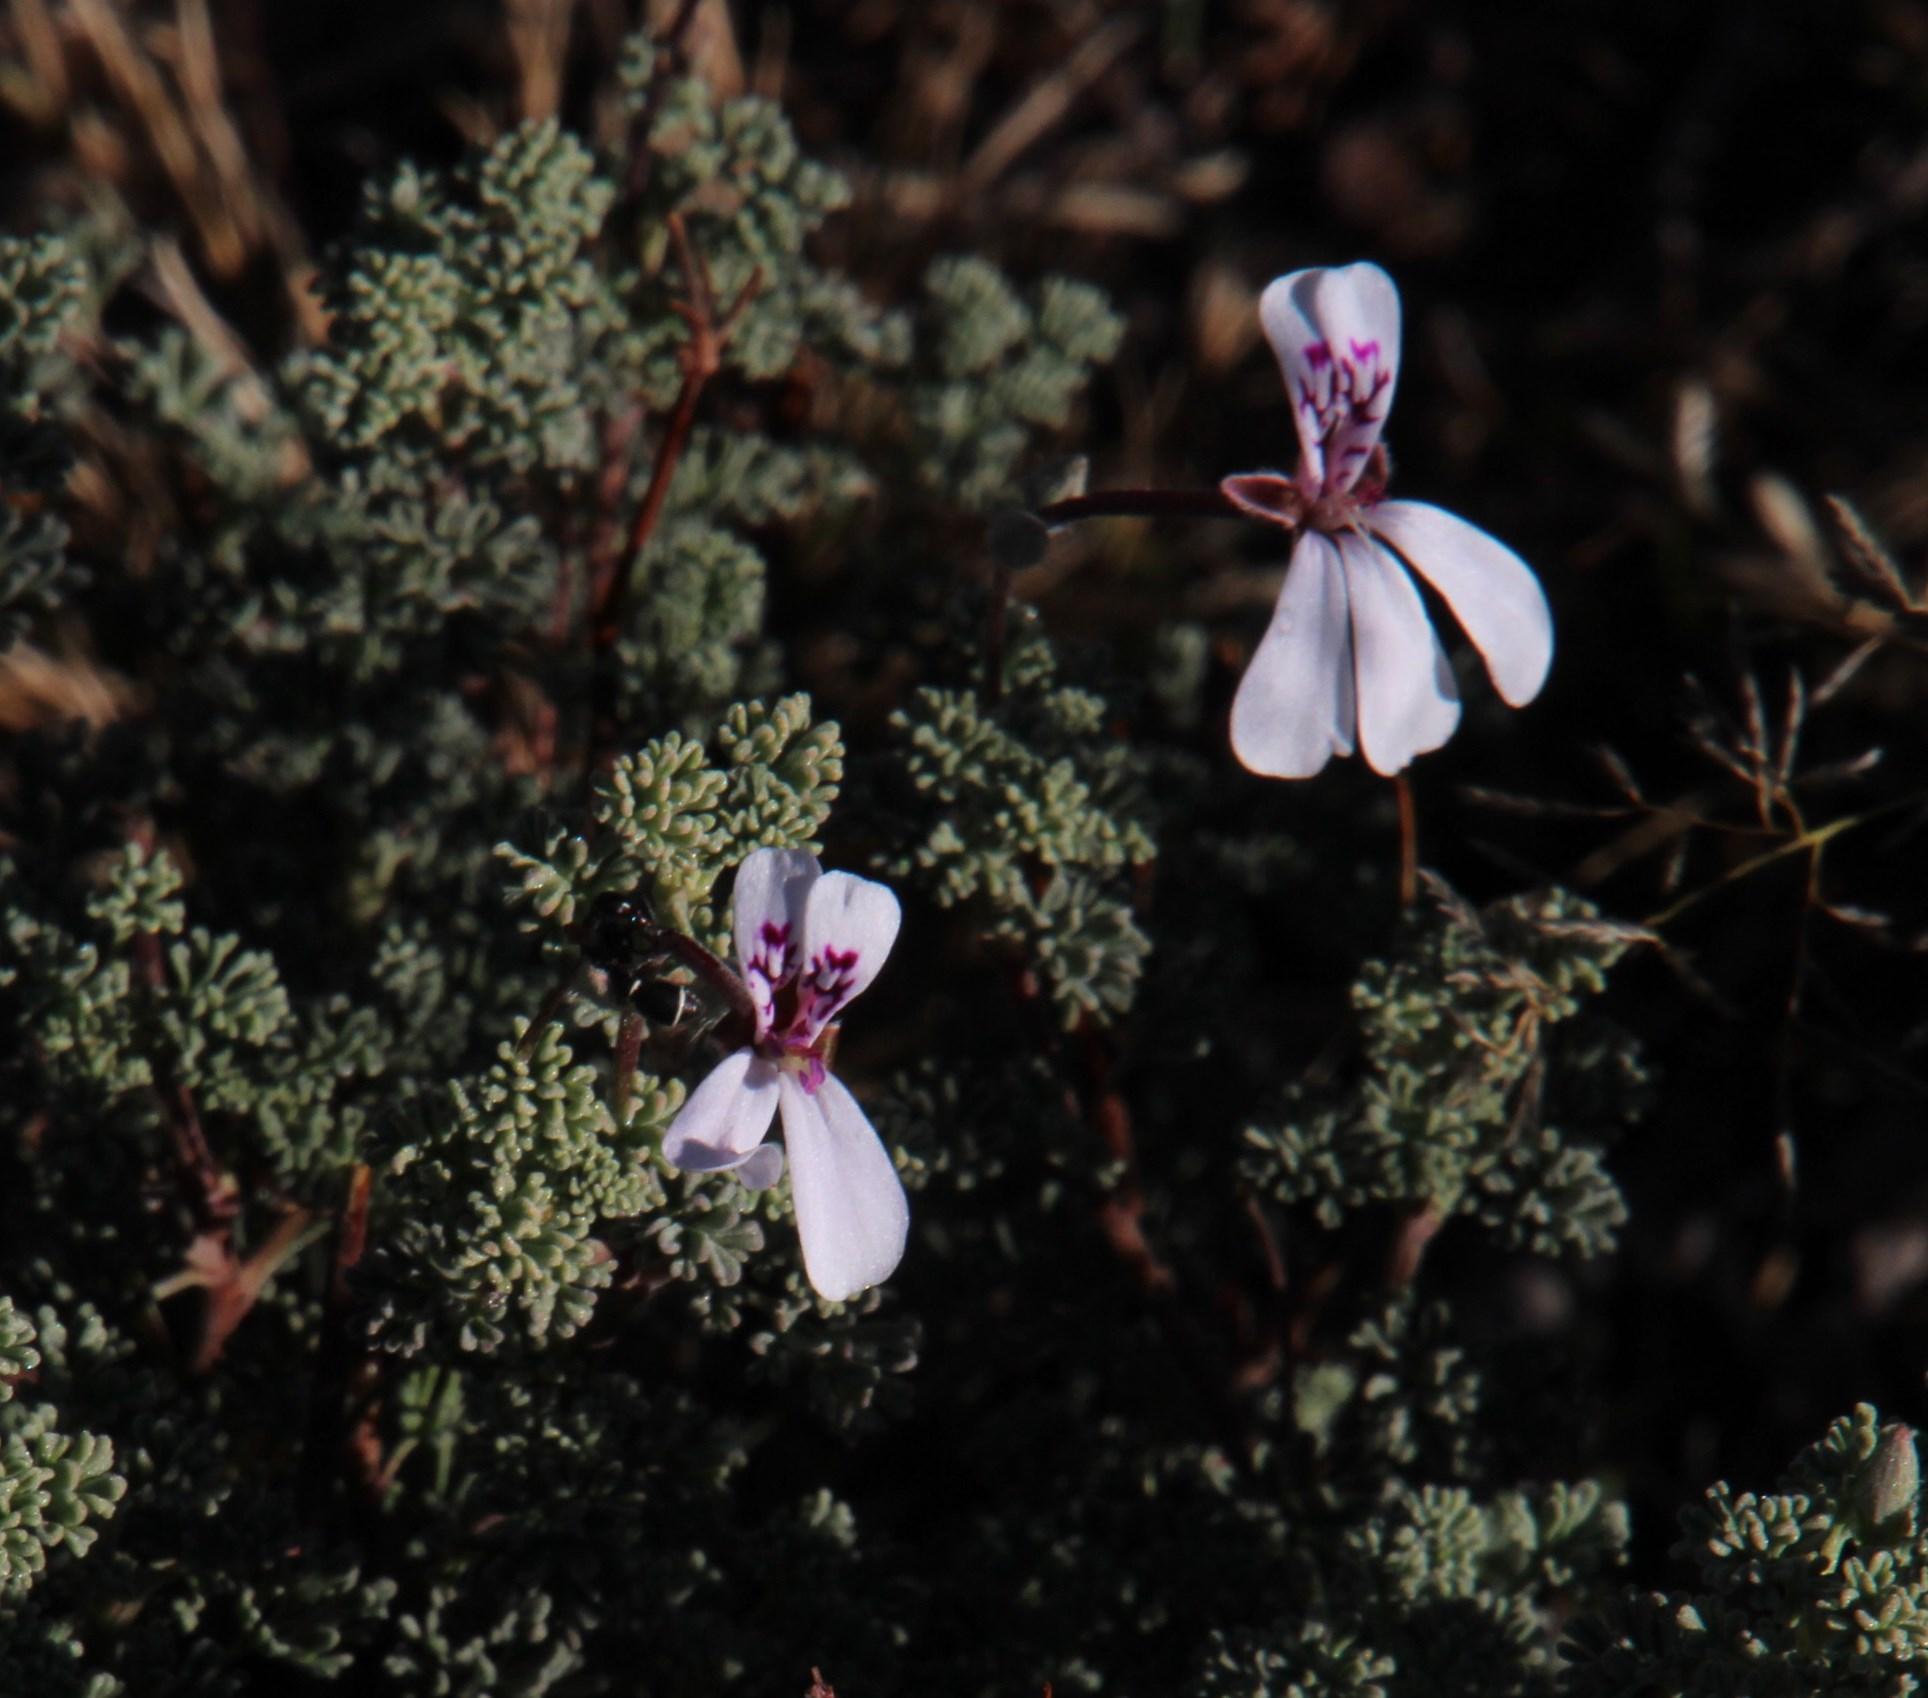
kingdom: Plantae
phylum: Tracheophyta
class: Magnoliopsida
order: Geraniales
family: Geraniaceae
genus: Pelargonium
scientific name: Pelargonium abrotanifolium
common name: Southernwood geranium
